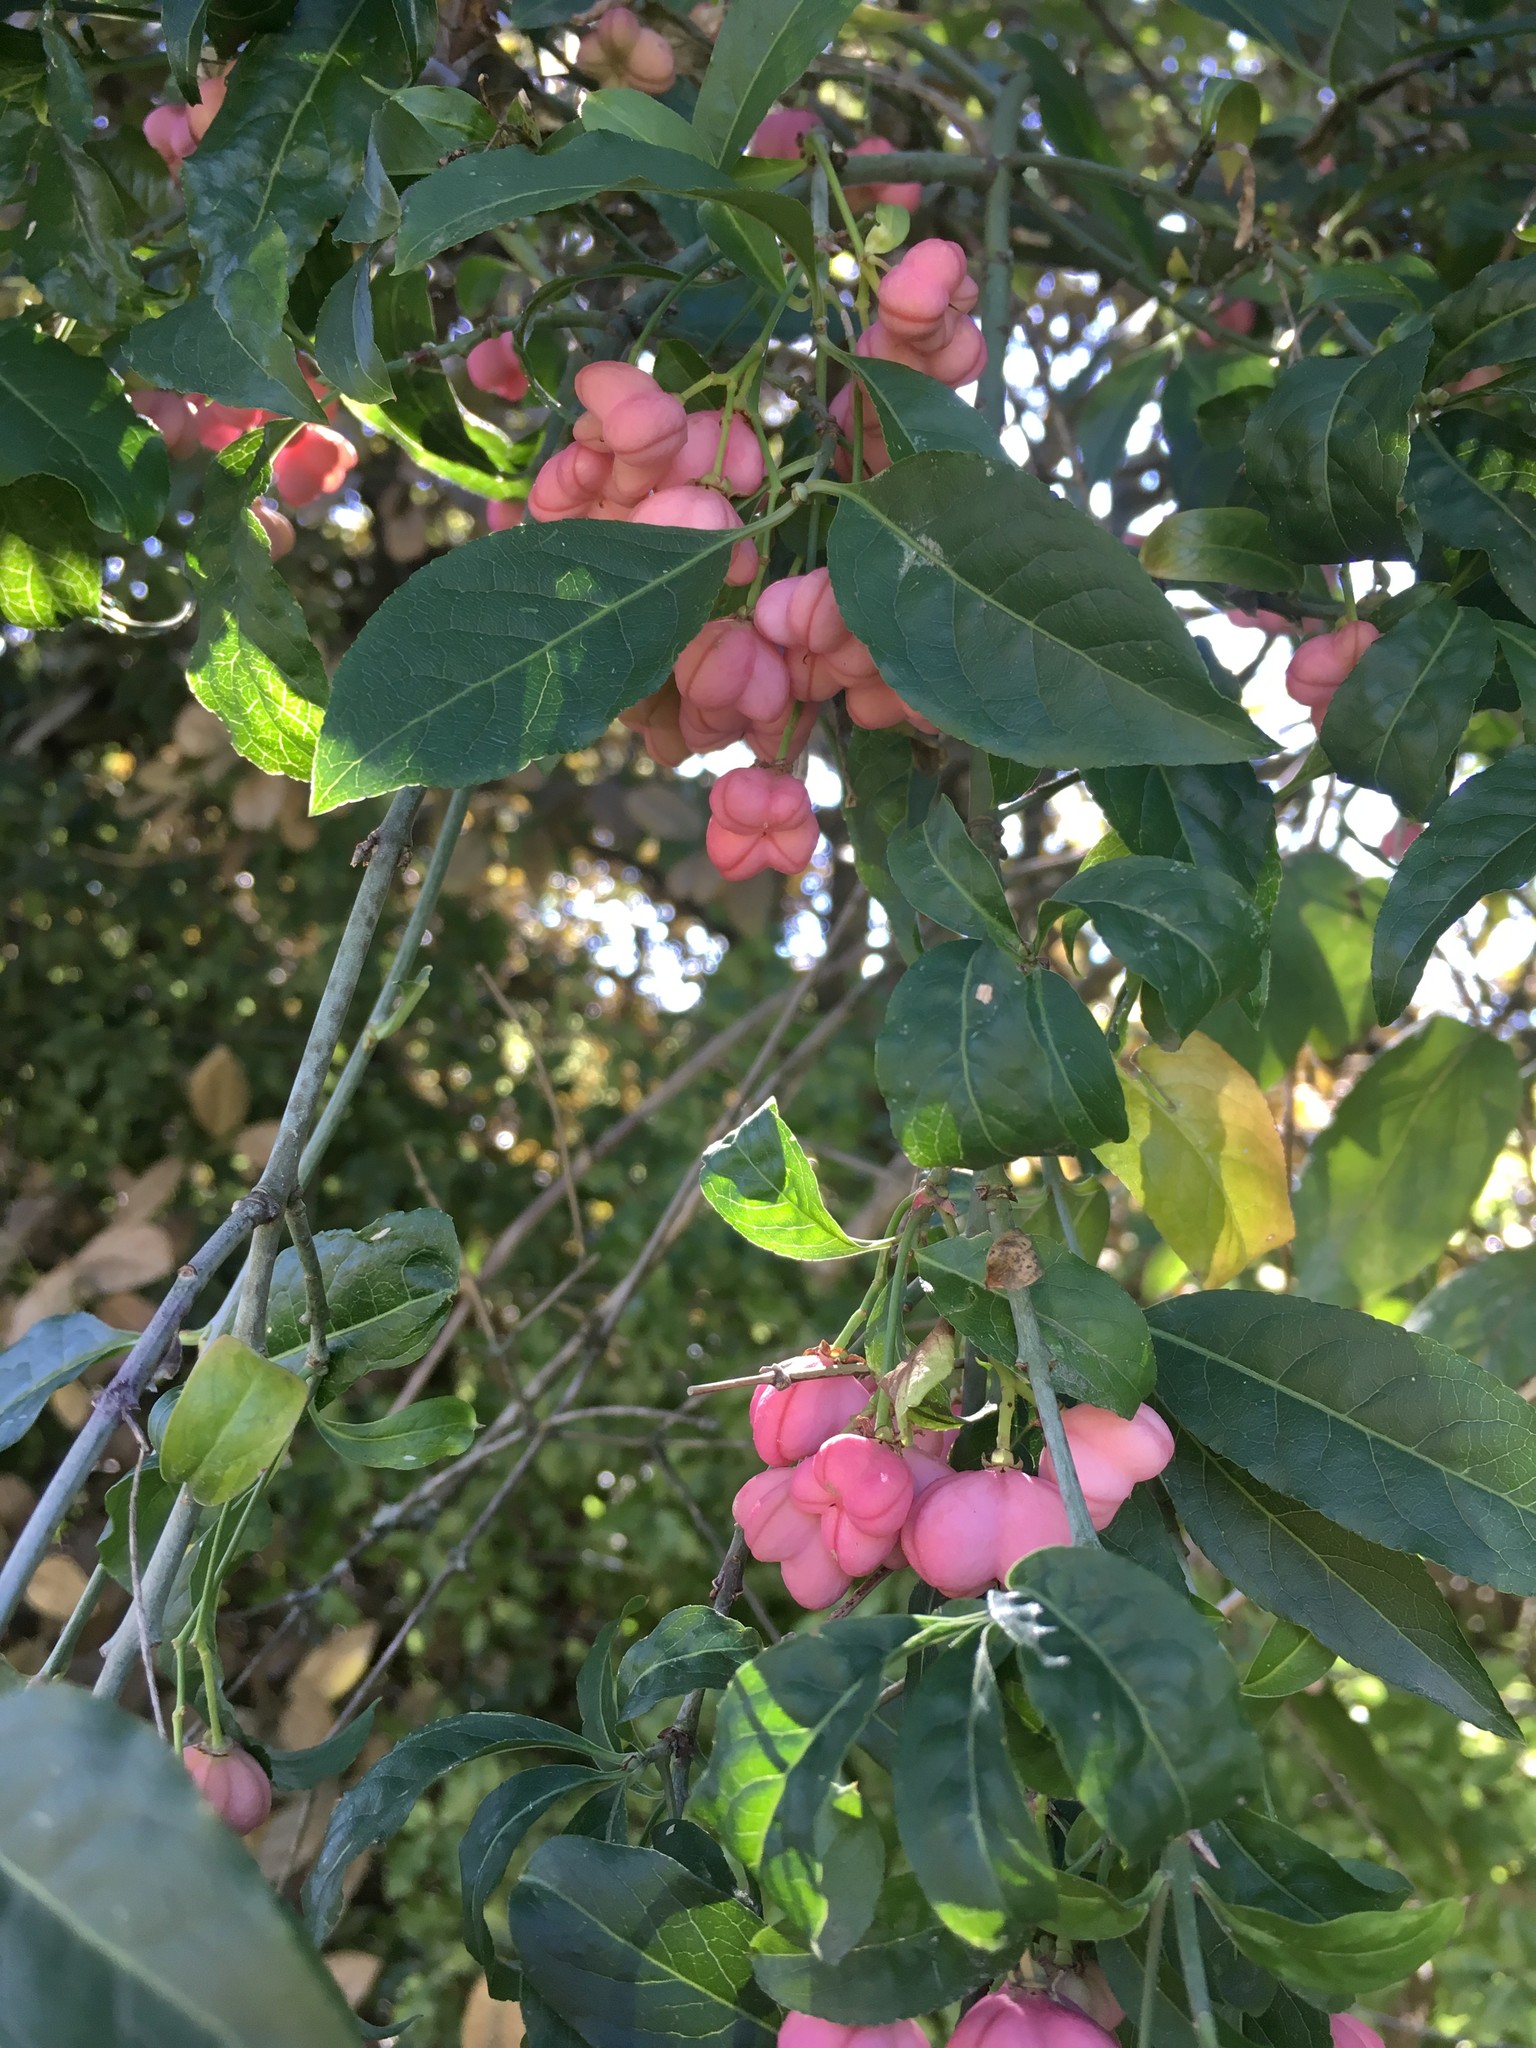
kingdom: Plantae
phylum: Tracheophyta
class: Magnoliopsida
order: Celastrales
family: Celastraceae
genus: Euonymus
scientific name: Euonymus europaeus
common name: Spindle
